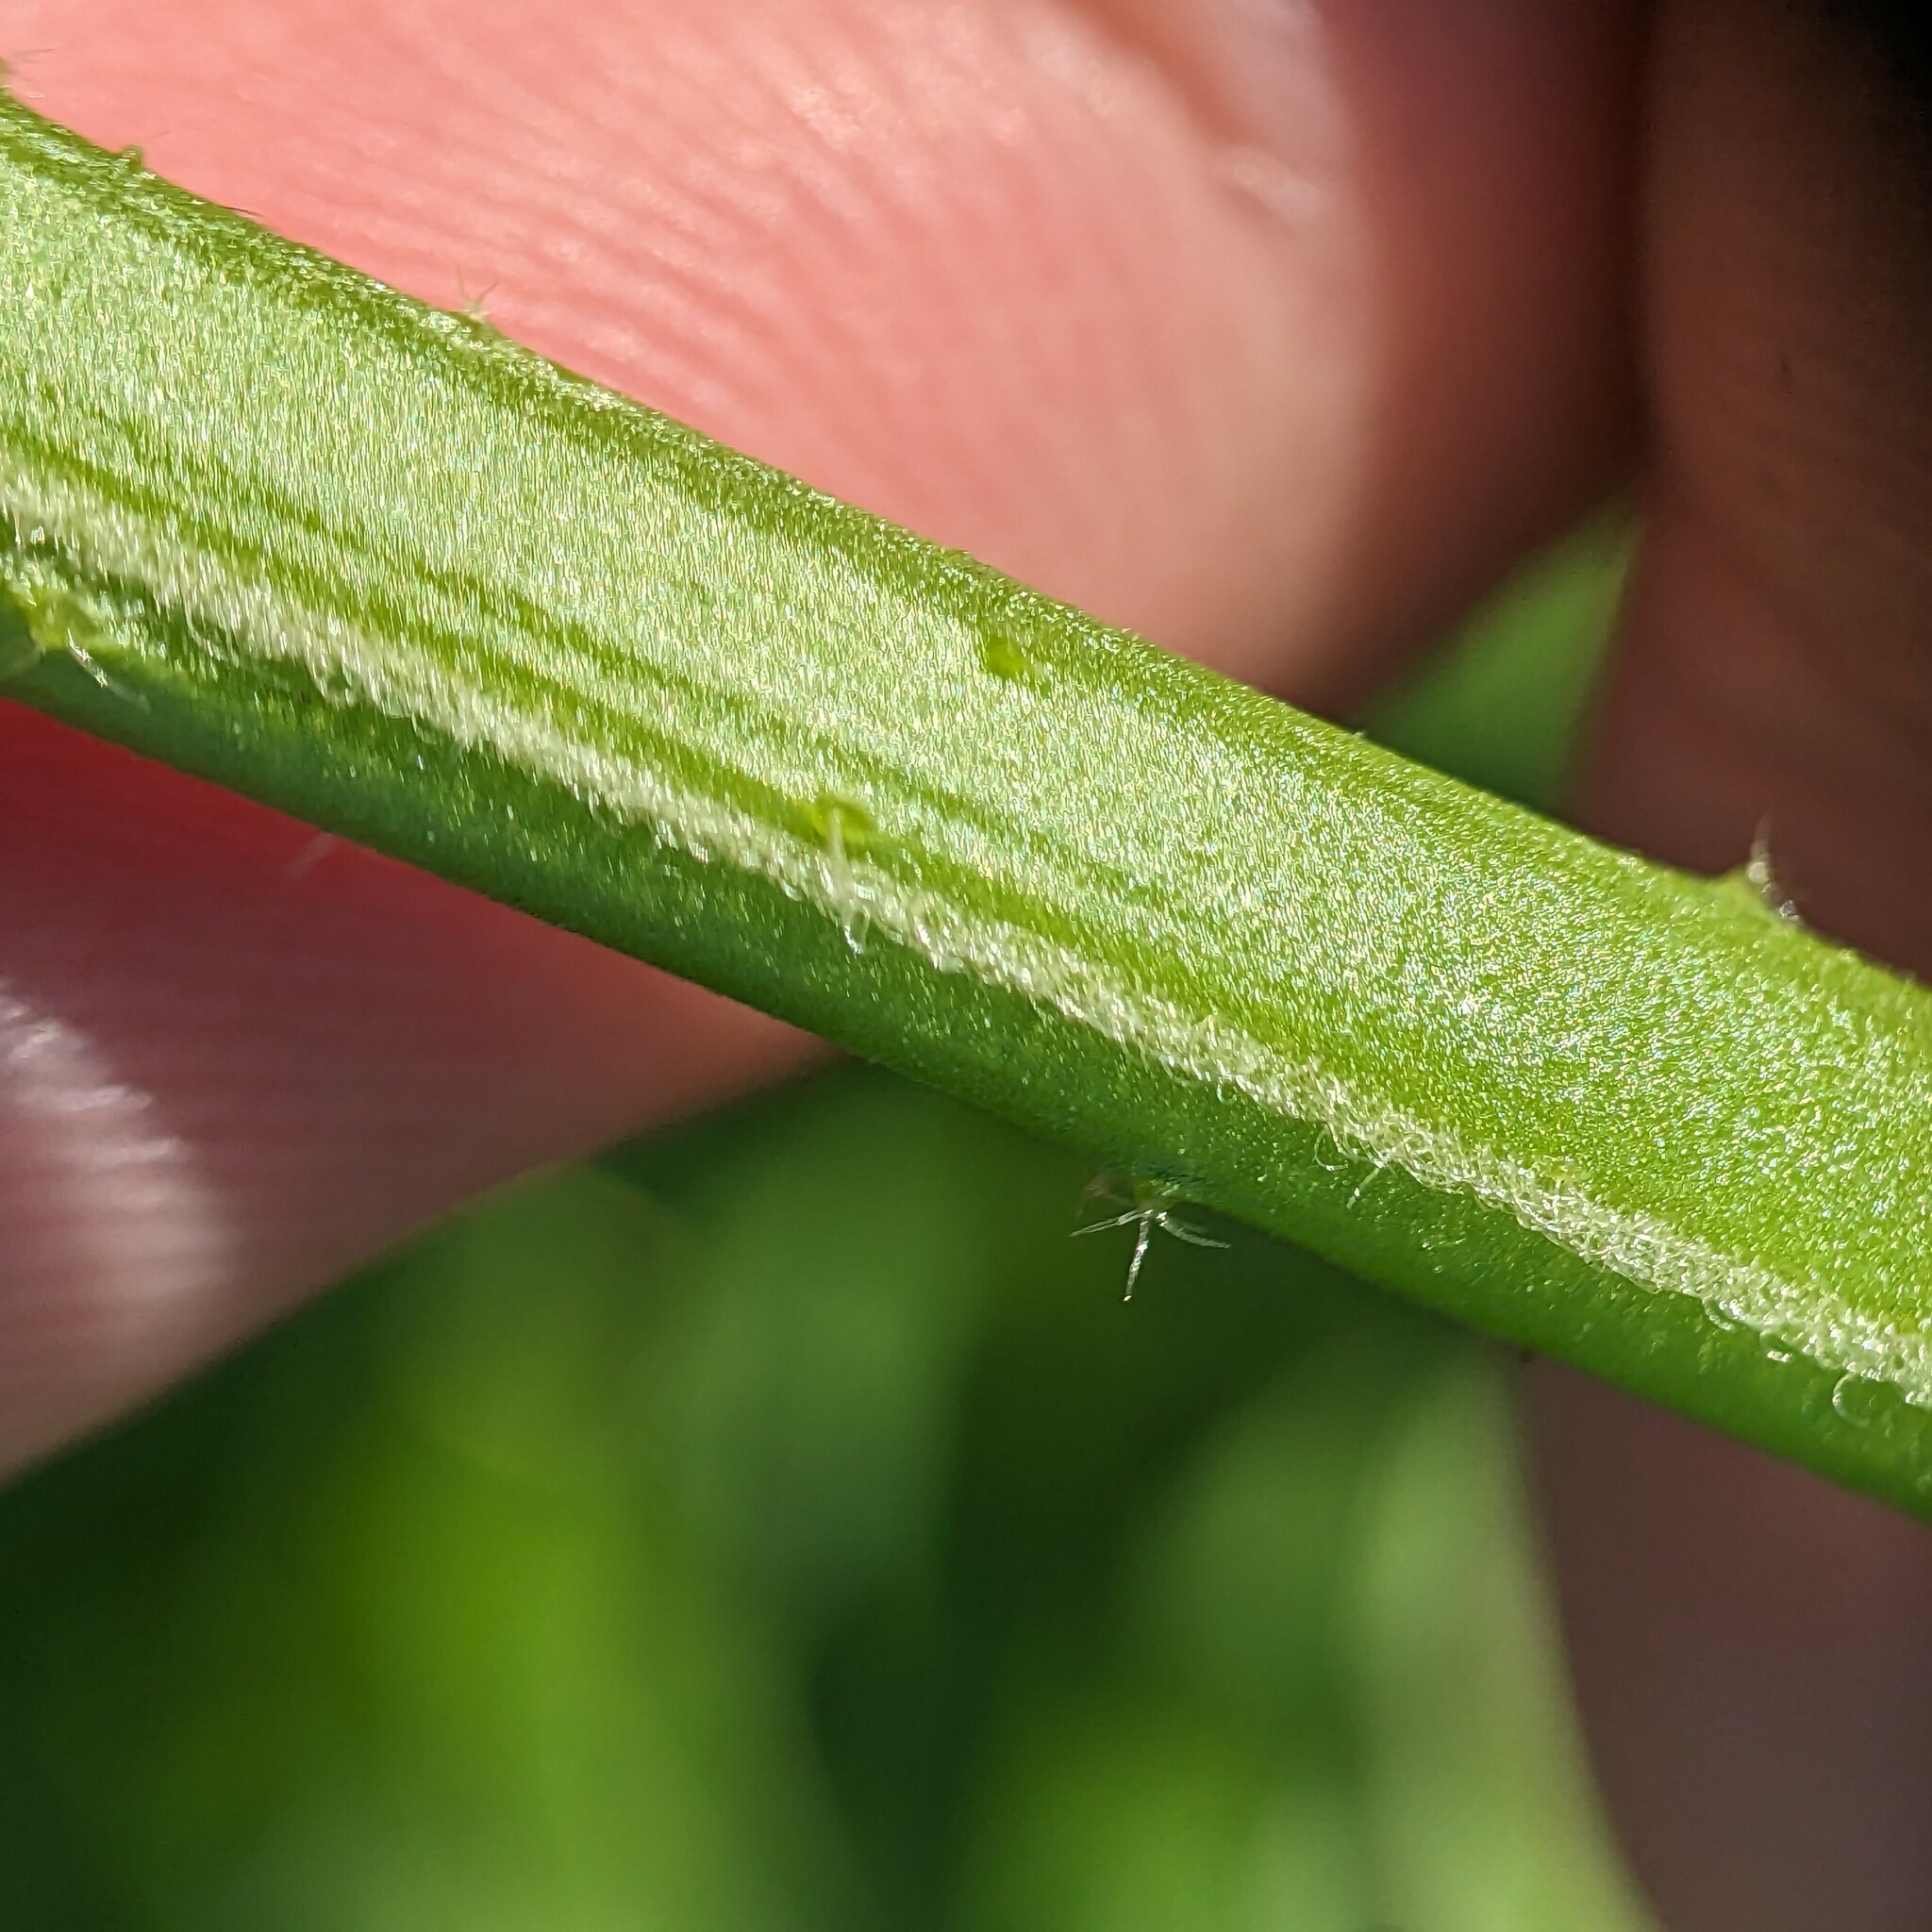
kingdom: Plantae
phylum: Tracheophyta
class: Magnoliopsida
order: Malvales
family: Malvaceae
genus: Hibiscus
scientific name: Hibiscus trionum
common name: Bladder ketmia
